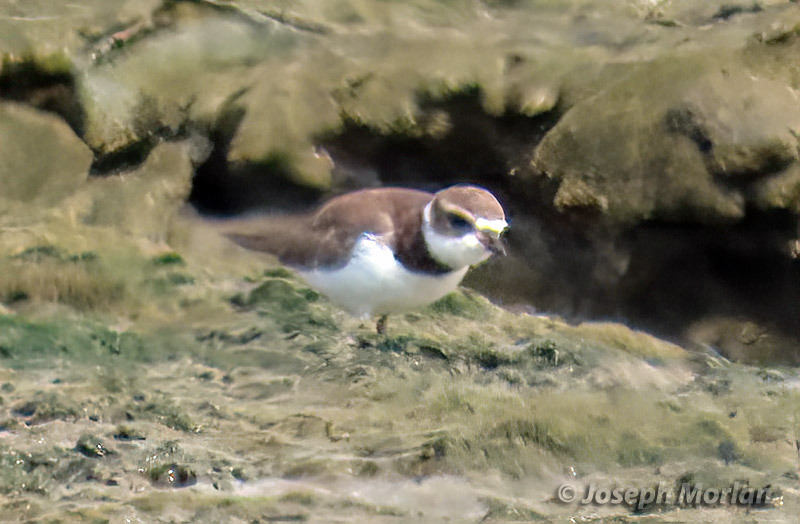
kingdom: Animalia
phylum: Chordata
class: Aves
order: Charadriiformes
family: Charadriidae
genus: Charadrius
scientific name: Charadrius semipalmatus
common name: Semipalmated plover
